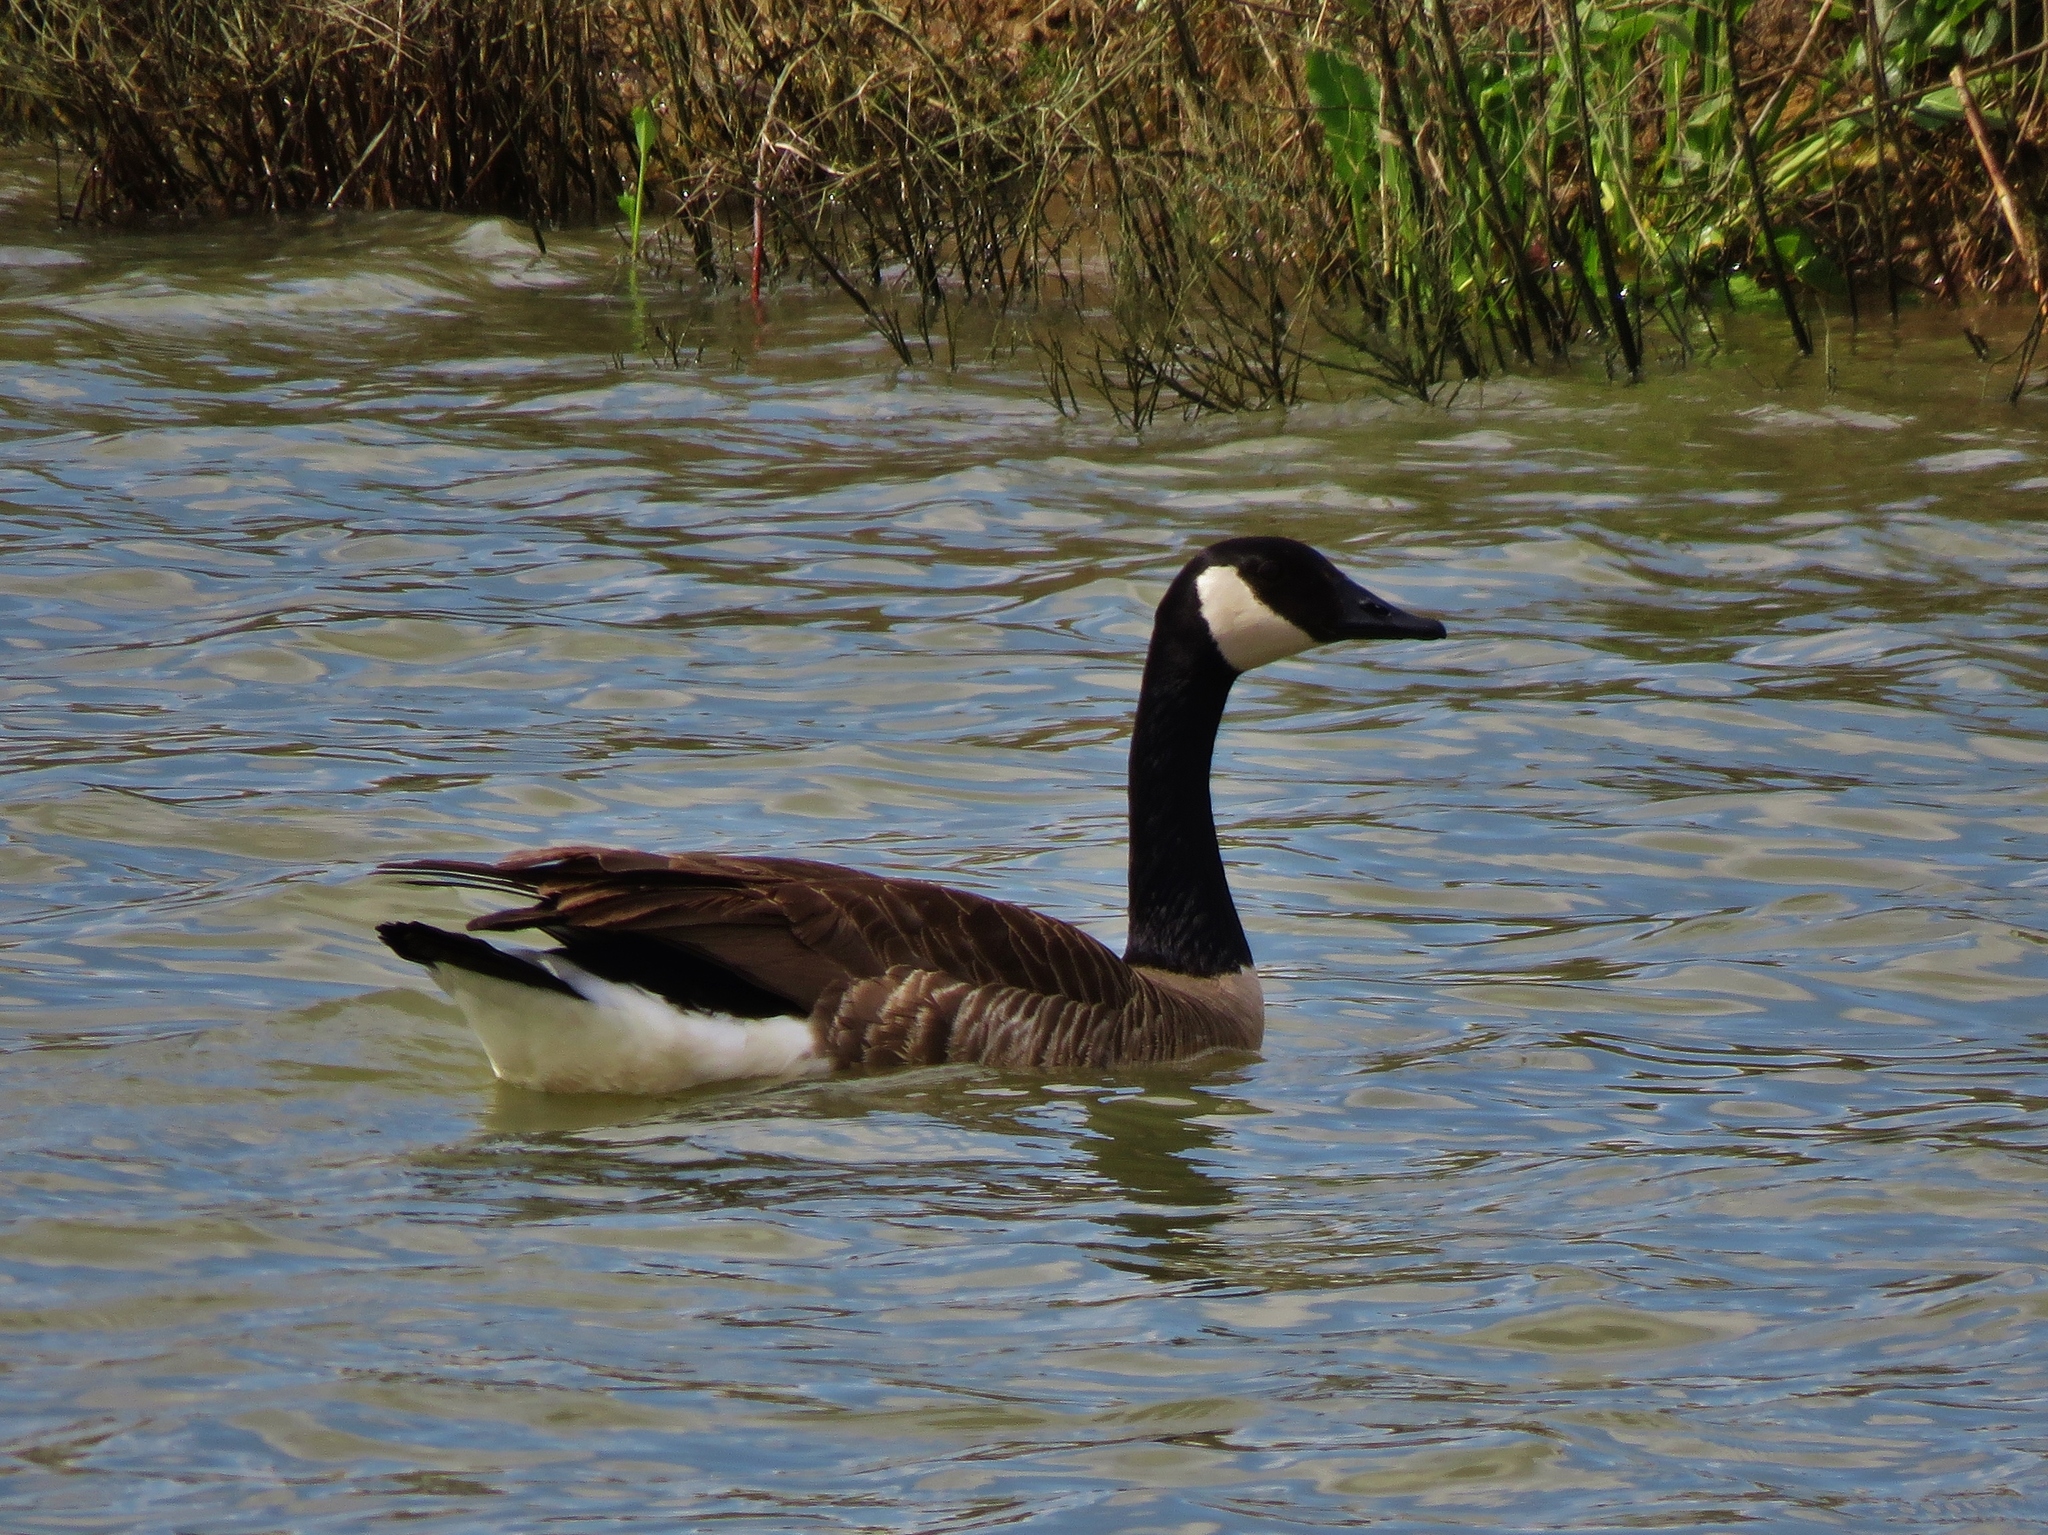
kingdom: Animalia
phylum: Chordata
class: Aves
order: Anseriformes
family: Anatidae
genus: Branta
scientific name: Branta canadensis
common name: Canada goose
